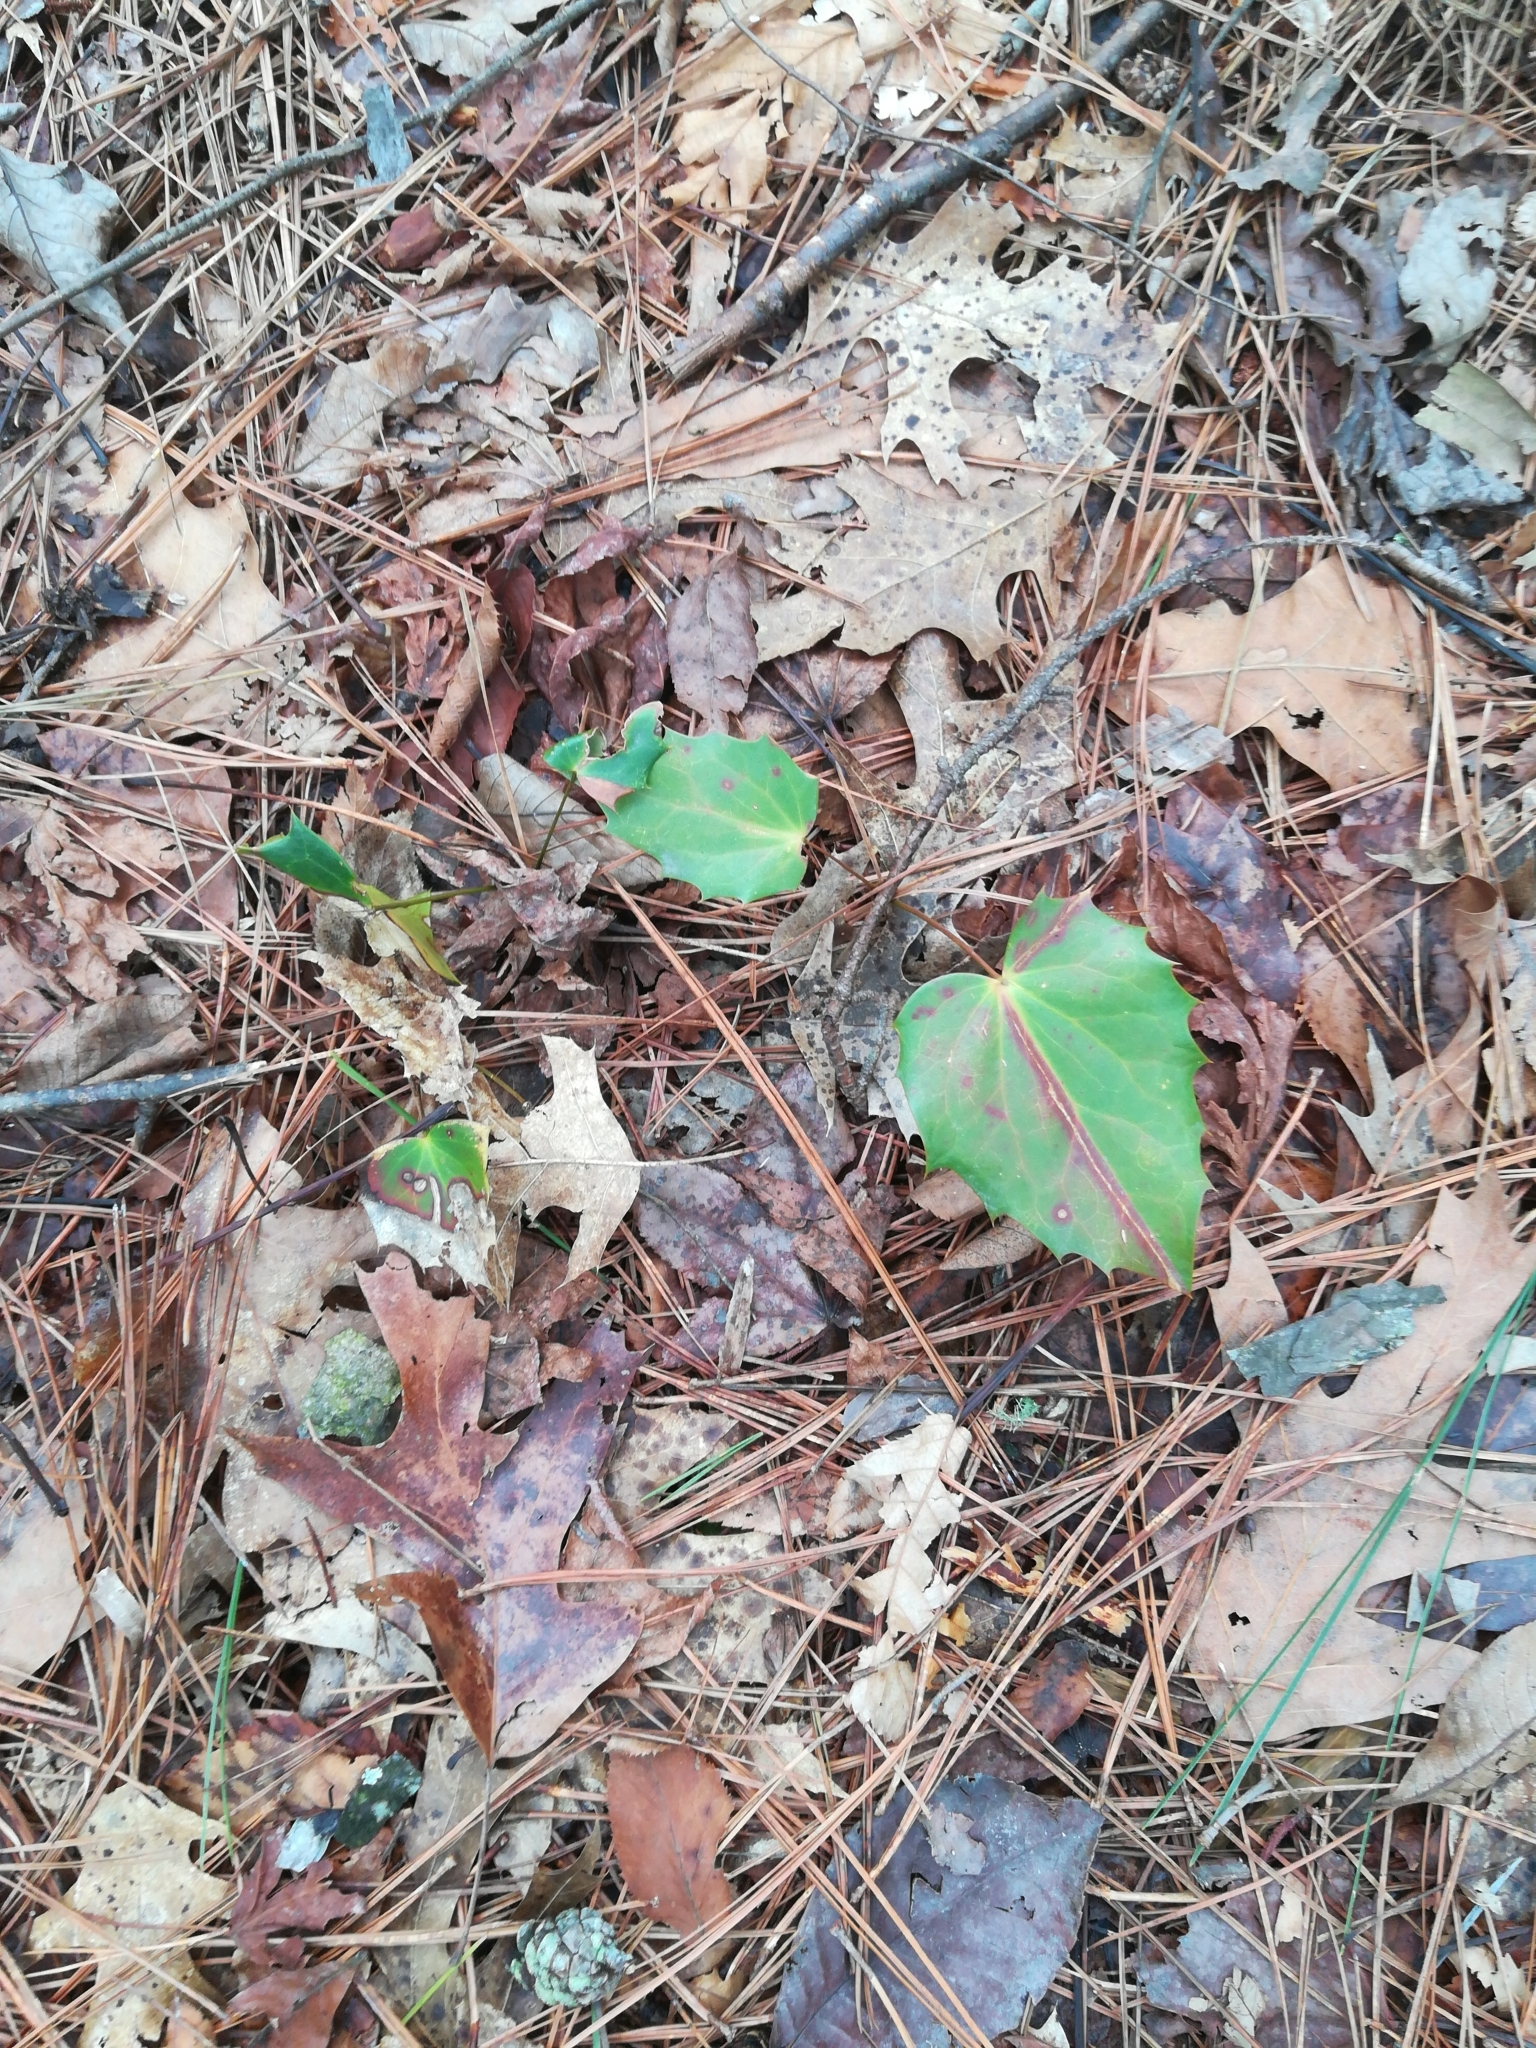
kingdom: Plantae
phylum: Tracheophyta
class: Magnoliopsida
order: Ranunculales
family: Berberidaceae
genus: Mahonia
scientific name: Mahonia bealei
